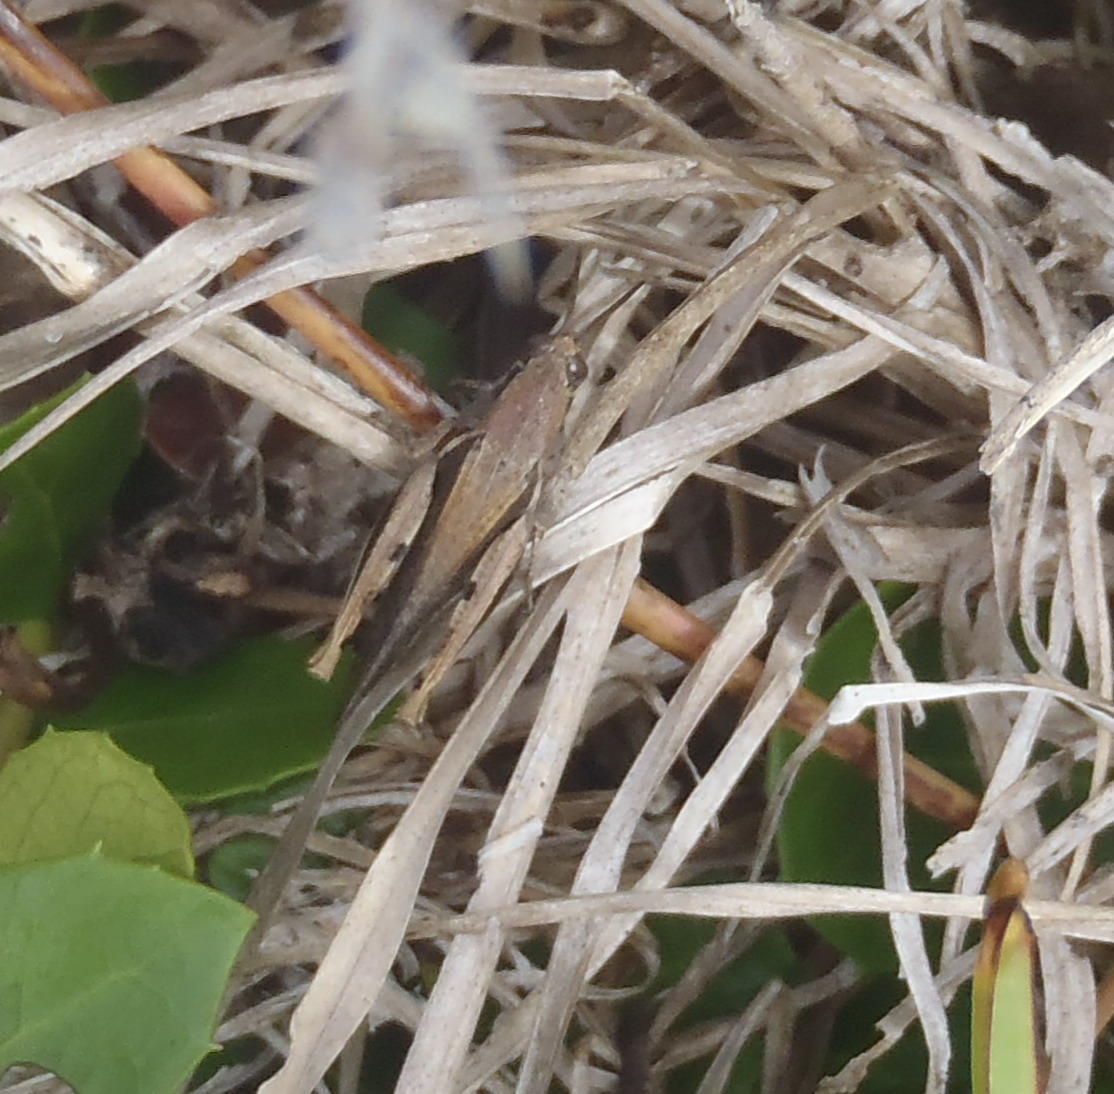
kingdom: Animalia
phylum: Arthropoda
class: Insecta
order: Orthoptera
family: Acrididae
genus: Vitticatantops
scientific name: Vitticatantops humeralis
